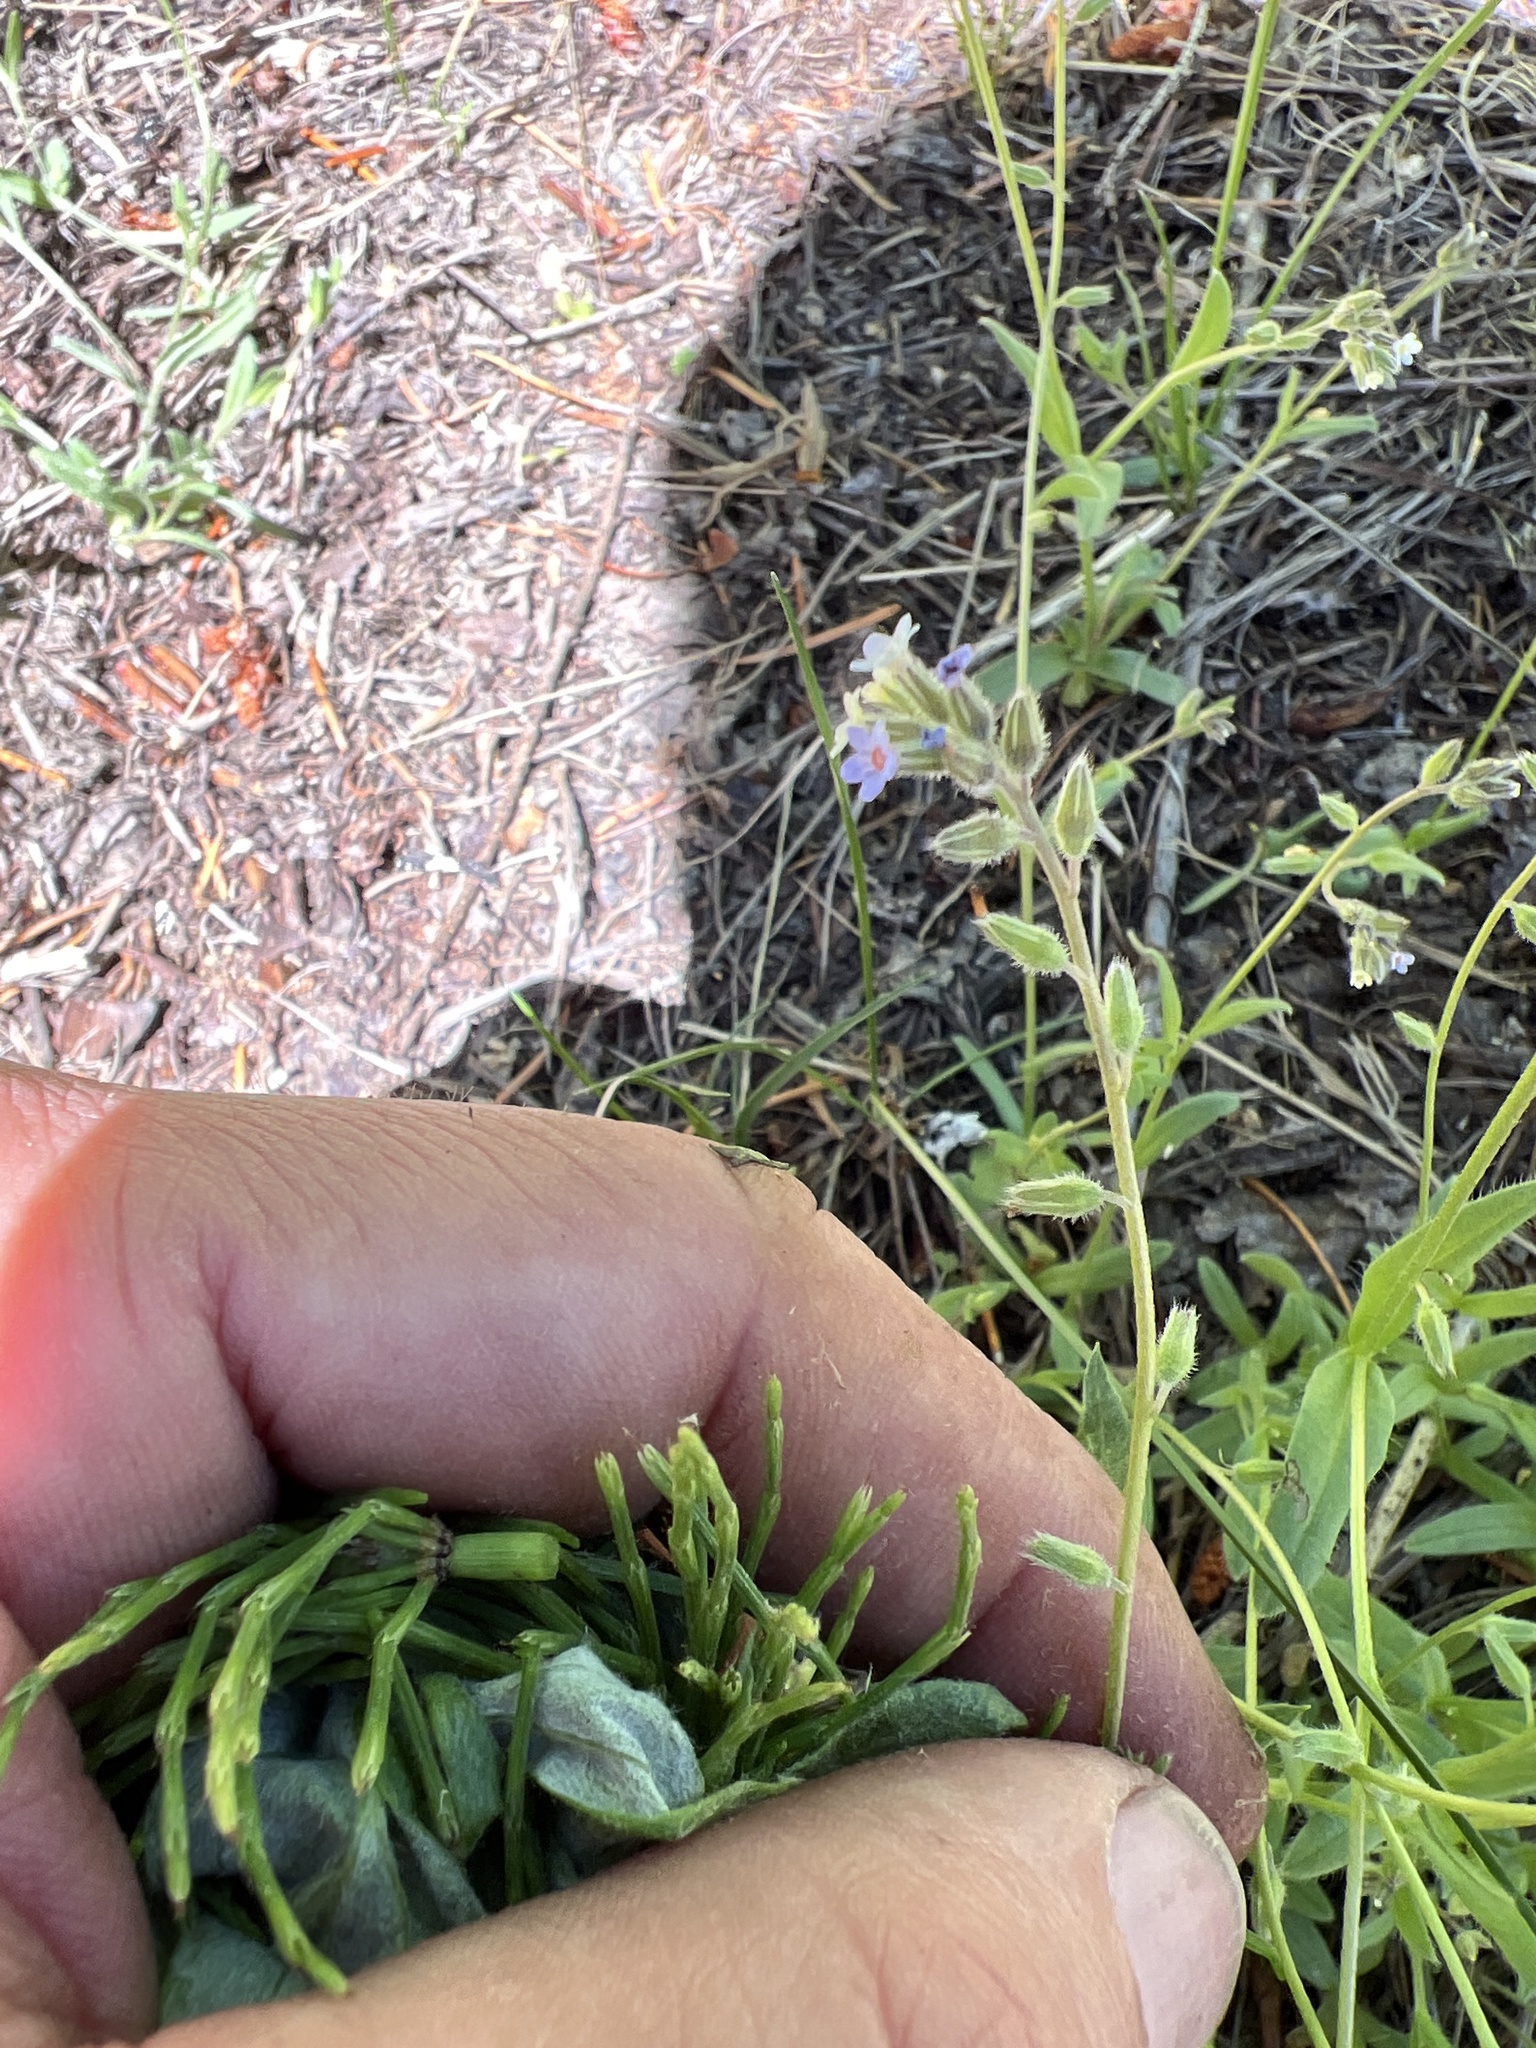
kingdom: Plantae
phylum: Tracheophyta
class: Magnoliopsida
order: Boraginales
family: Boraginaceae
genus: Myosotis
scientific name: Myosotis discolor
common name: Changing forget-me-not
